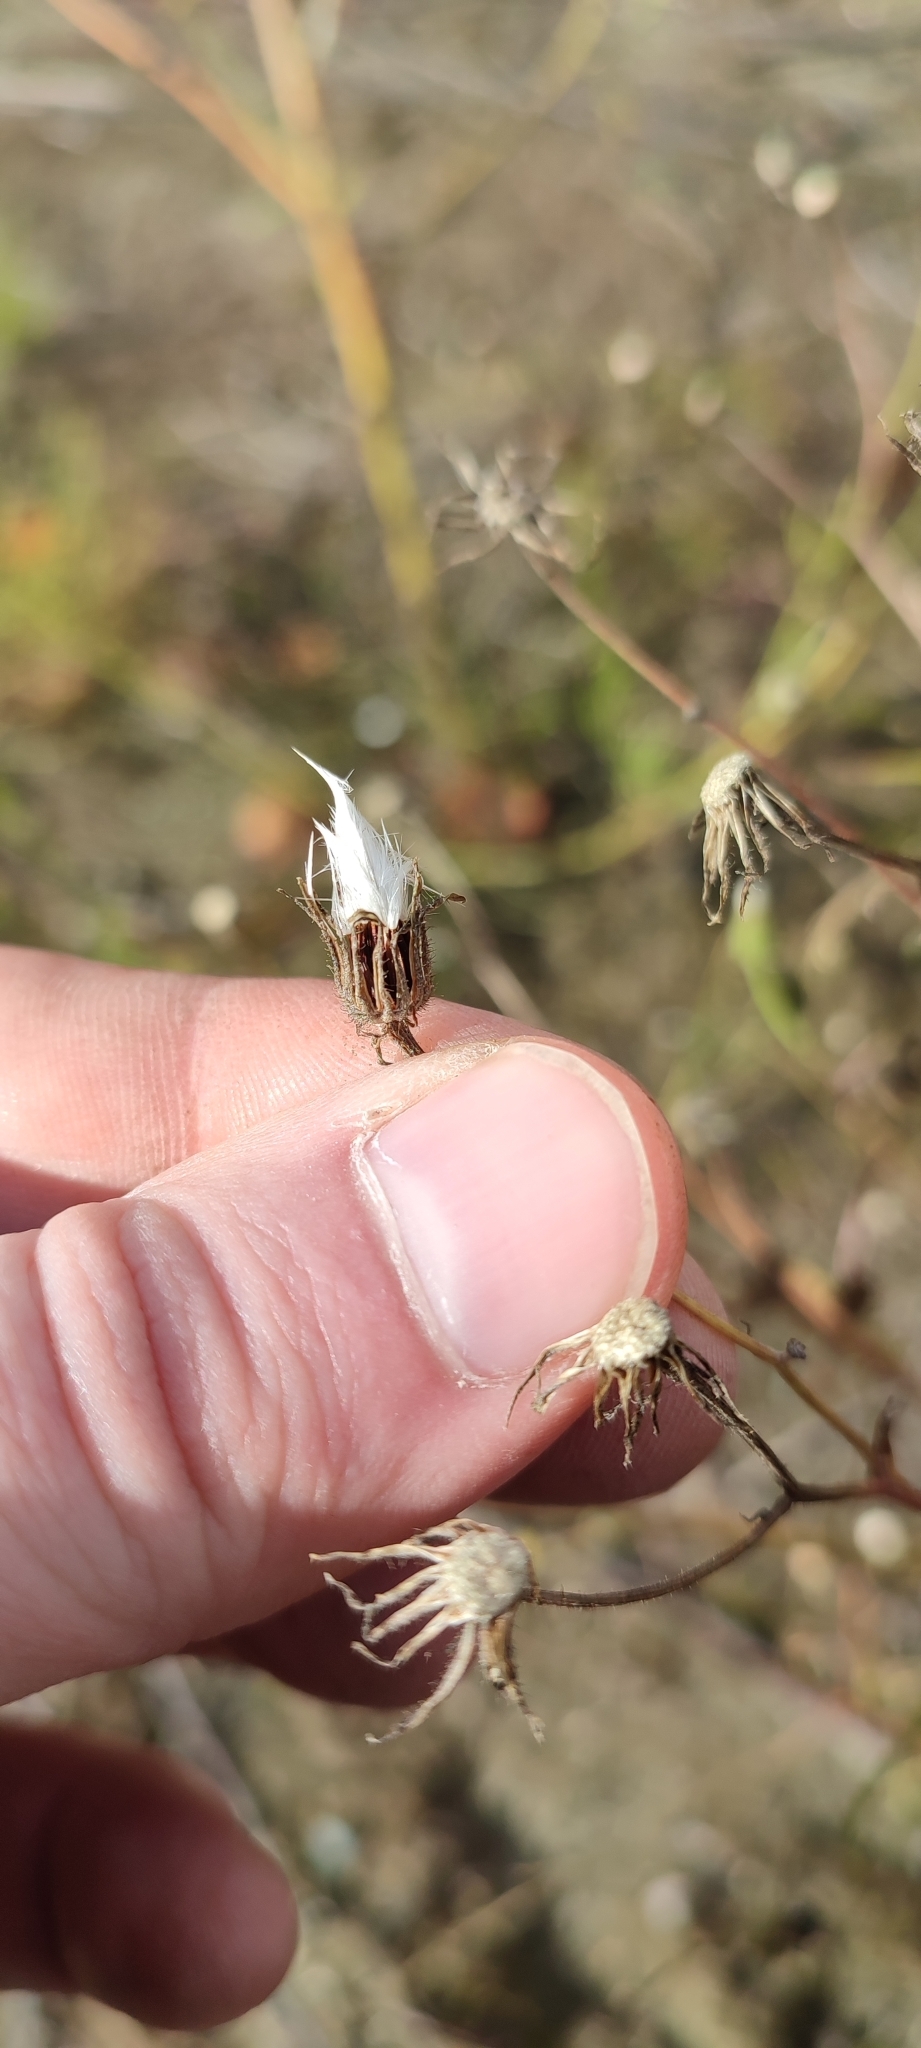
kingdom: Plantae
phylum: Tracheophyta
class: Magnoliopsida
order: Asterales
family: Asteraceae
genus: Crepis
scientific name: Crepis tectorum
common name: Narrow-leaved hawk's-beard
